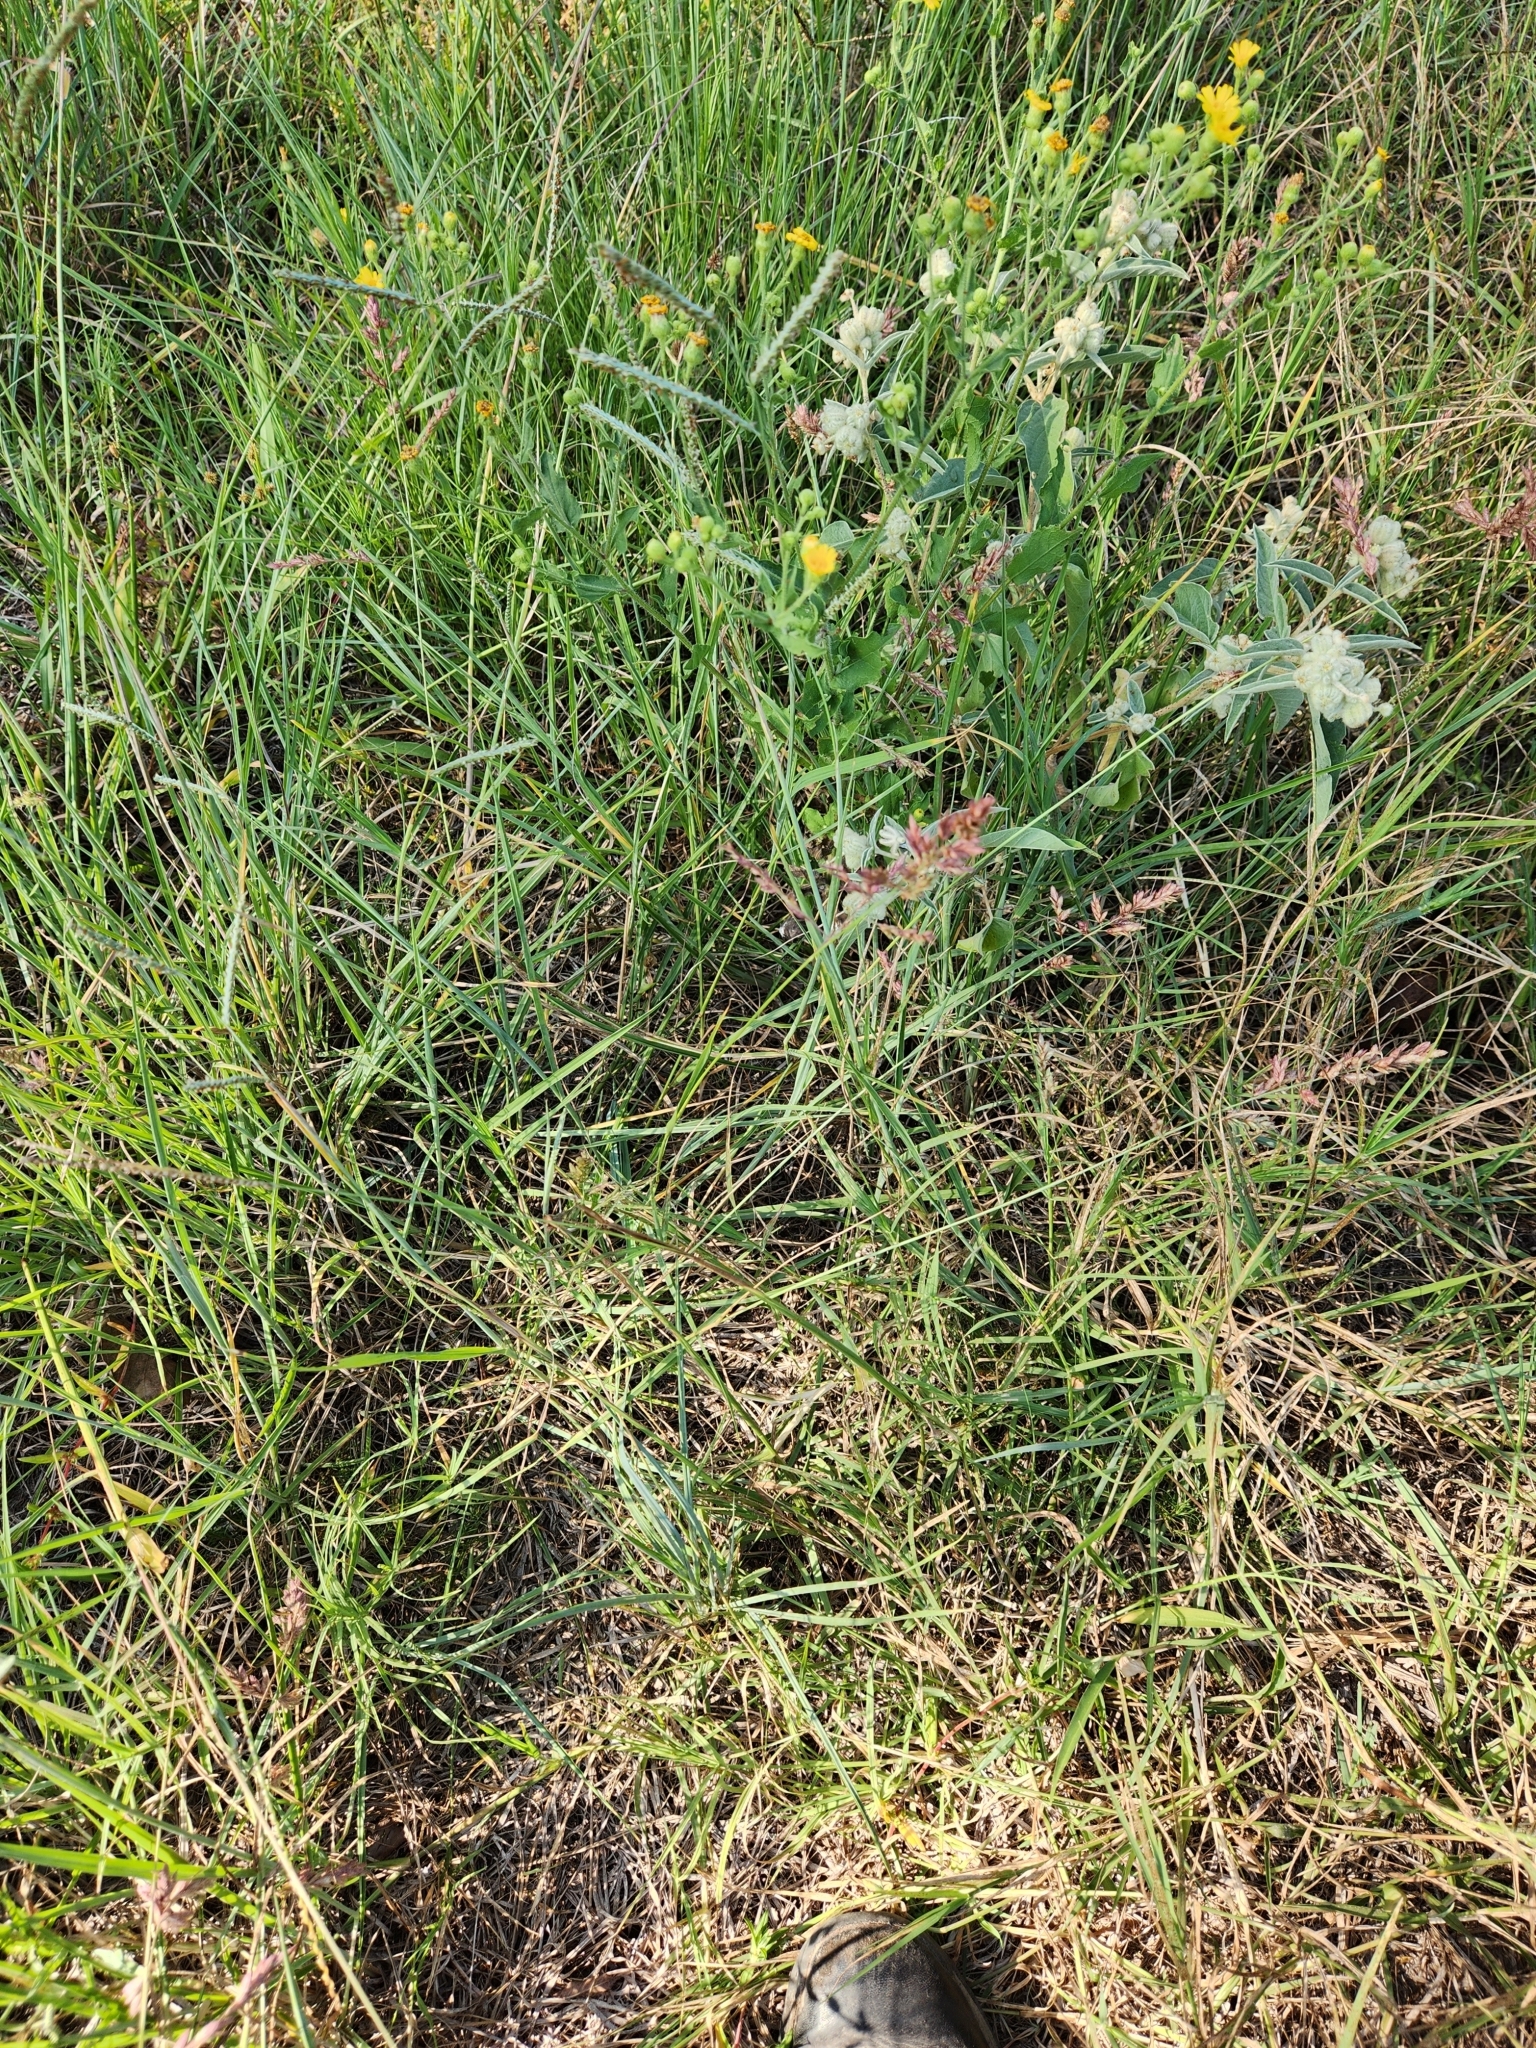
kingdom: Plantae
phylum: Tracheophyta
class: Liliopsida
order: Poales
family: Poaceae
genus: Eragrostis
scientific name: Eragrostis secundiflora
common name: Red love grass
